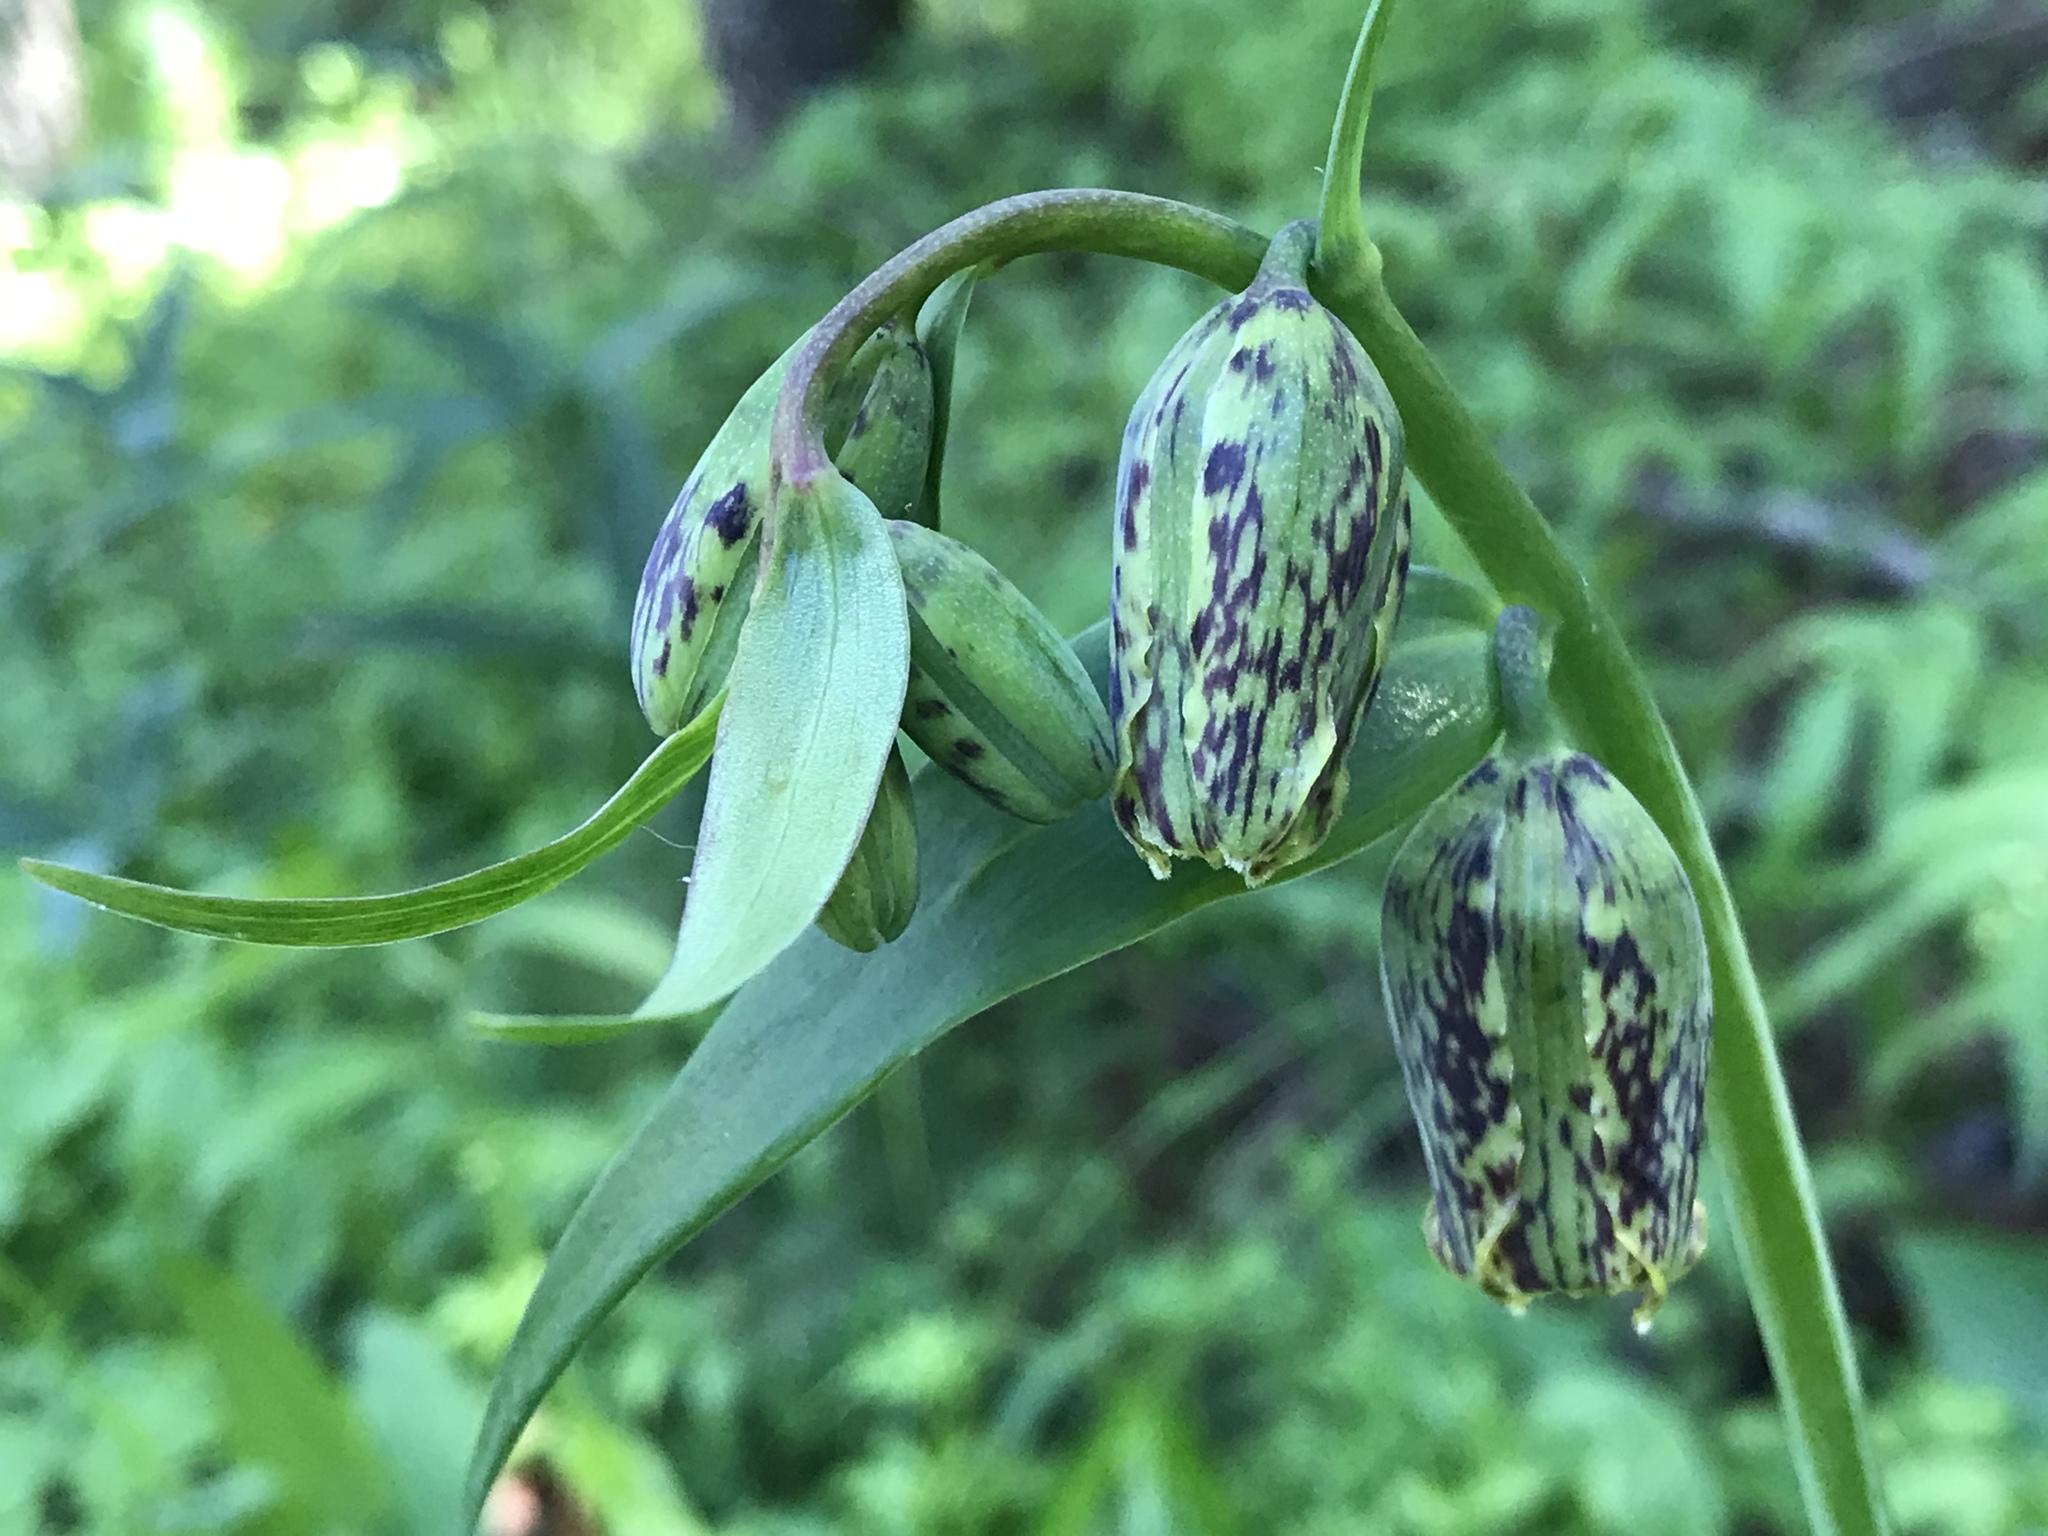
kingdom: Plantae
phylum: Tracheophyta
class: Liliopsida
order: Liliales
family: Liliaceae
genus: Fritillaria
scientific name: Fritillaria affinis
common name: Ojai fritillary
